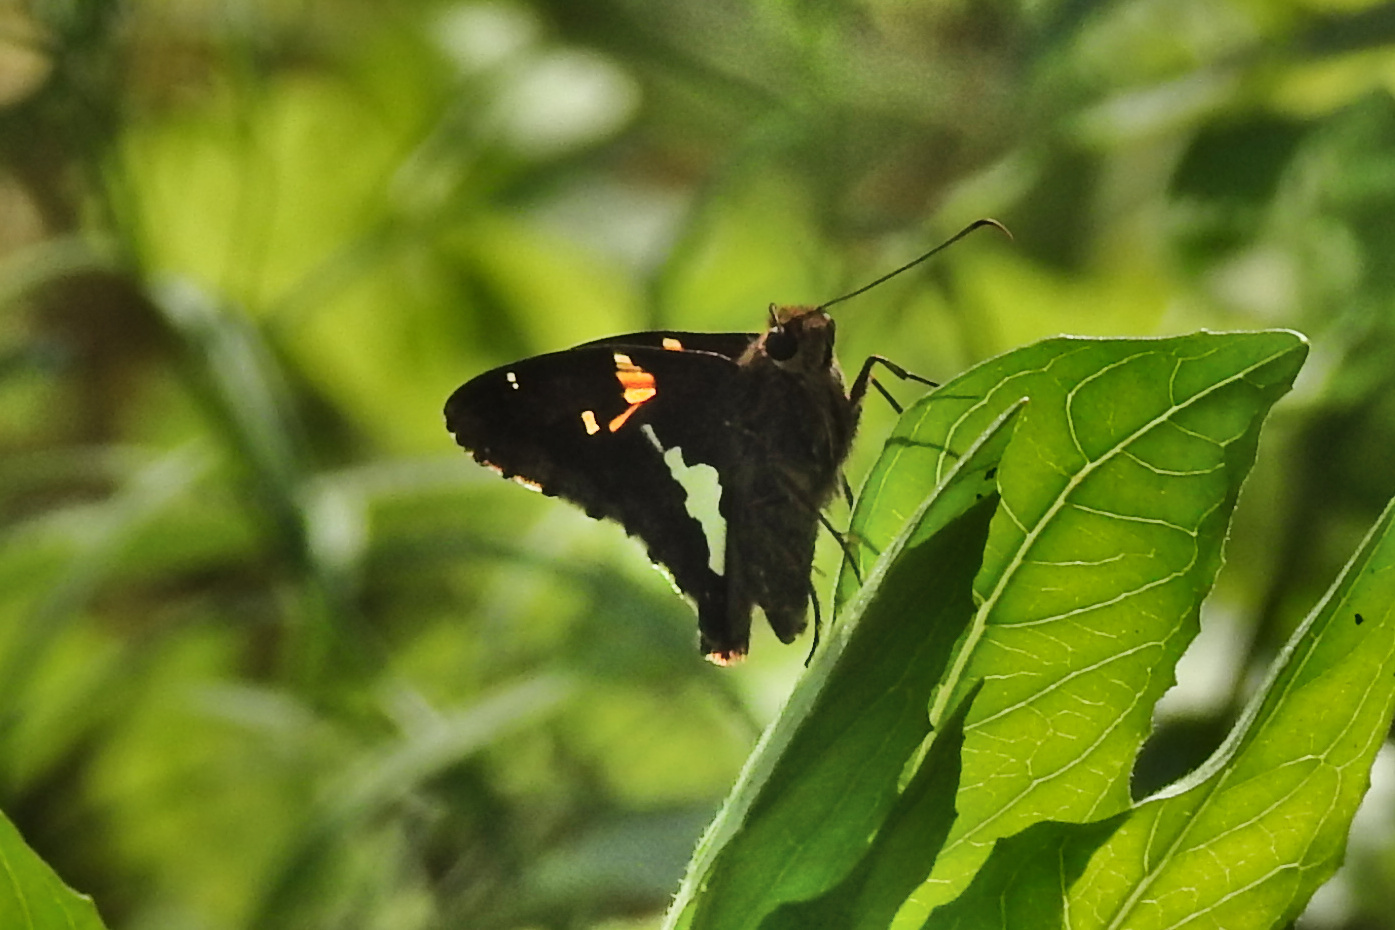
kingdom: Animalia
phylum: Arthropoda
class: Insecta
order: Lepidoptera
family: Hesperiidae
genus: Epargyreus
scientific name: Epargyreus clarus
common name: Silver-spotted skipper
